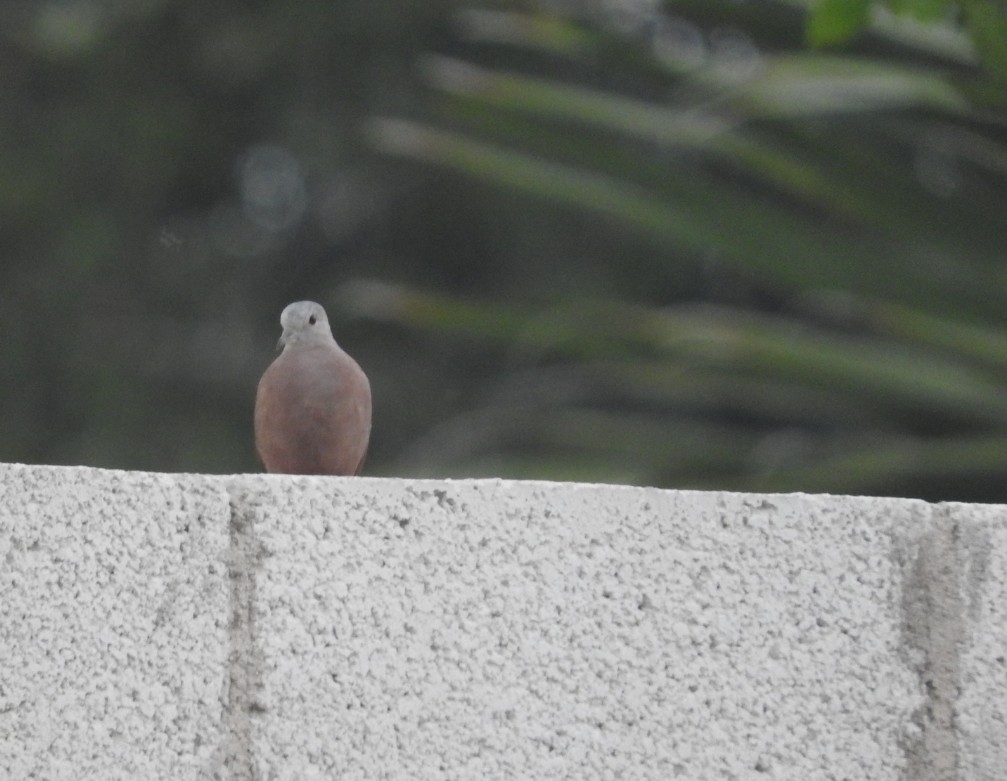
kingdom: Animalia
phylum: Chordata
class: Aves
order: Columbiformes
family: Columbidae
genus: Columbina
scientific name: Columbina talpacoti
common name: Ruddy ground dove
